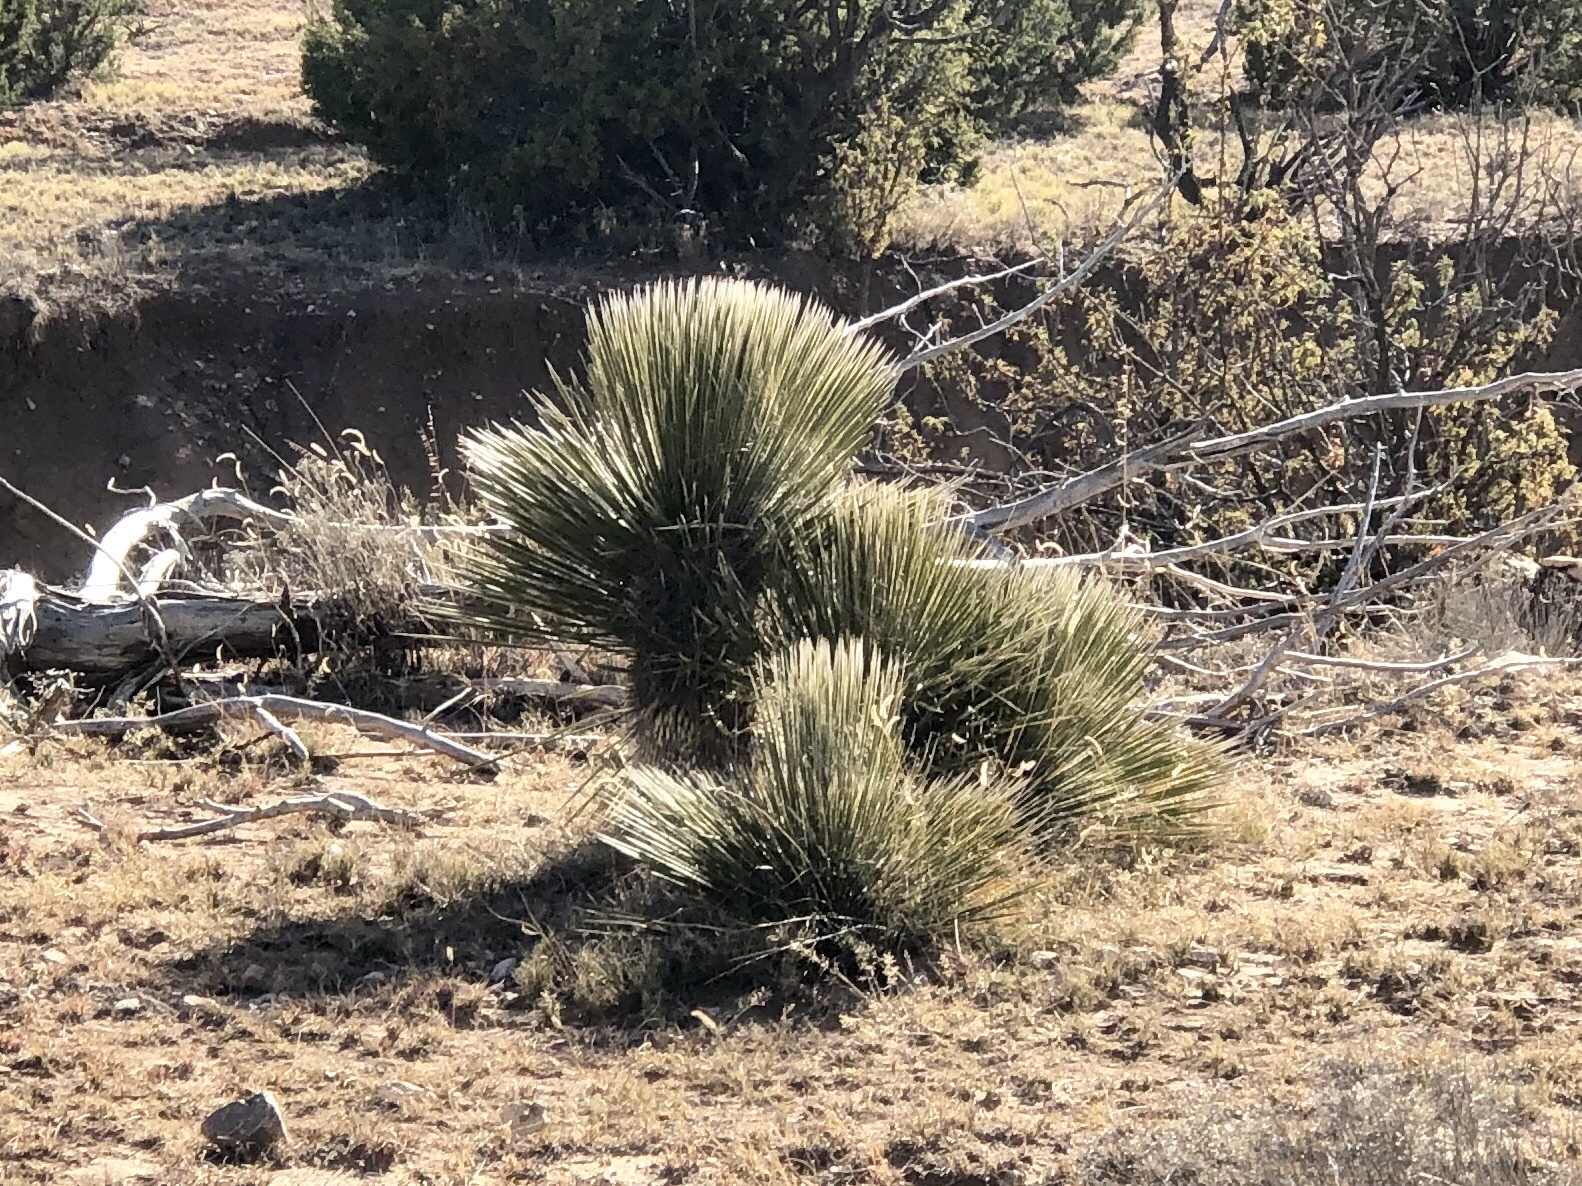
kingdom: Plantae
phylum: Tracheophyta
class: Liliopsida
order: Asparagales
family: Asparagaceae
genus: Yucca
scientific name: Yucca elata
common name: Palmella
